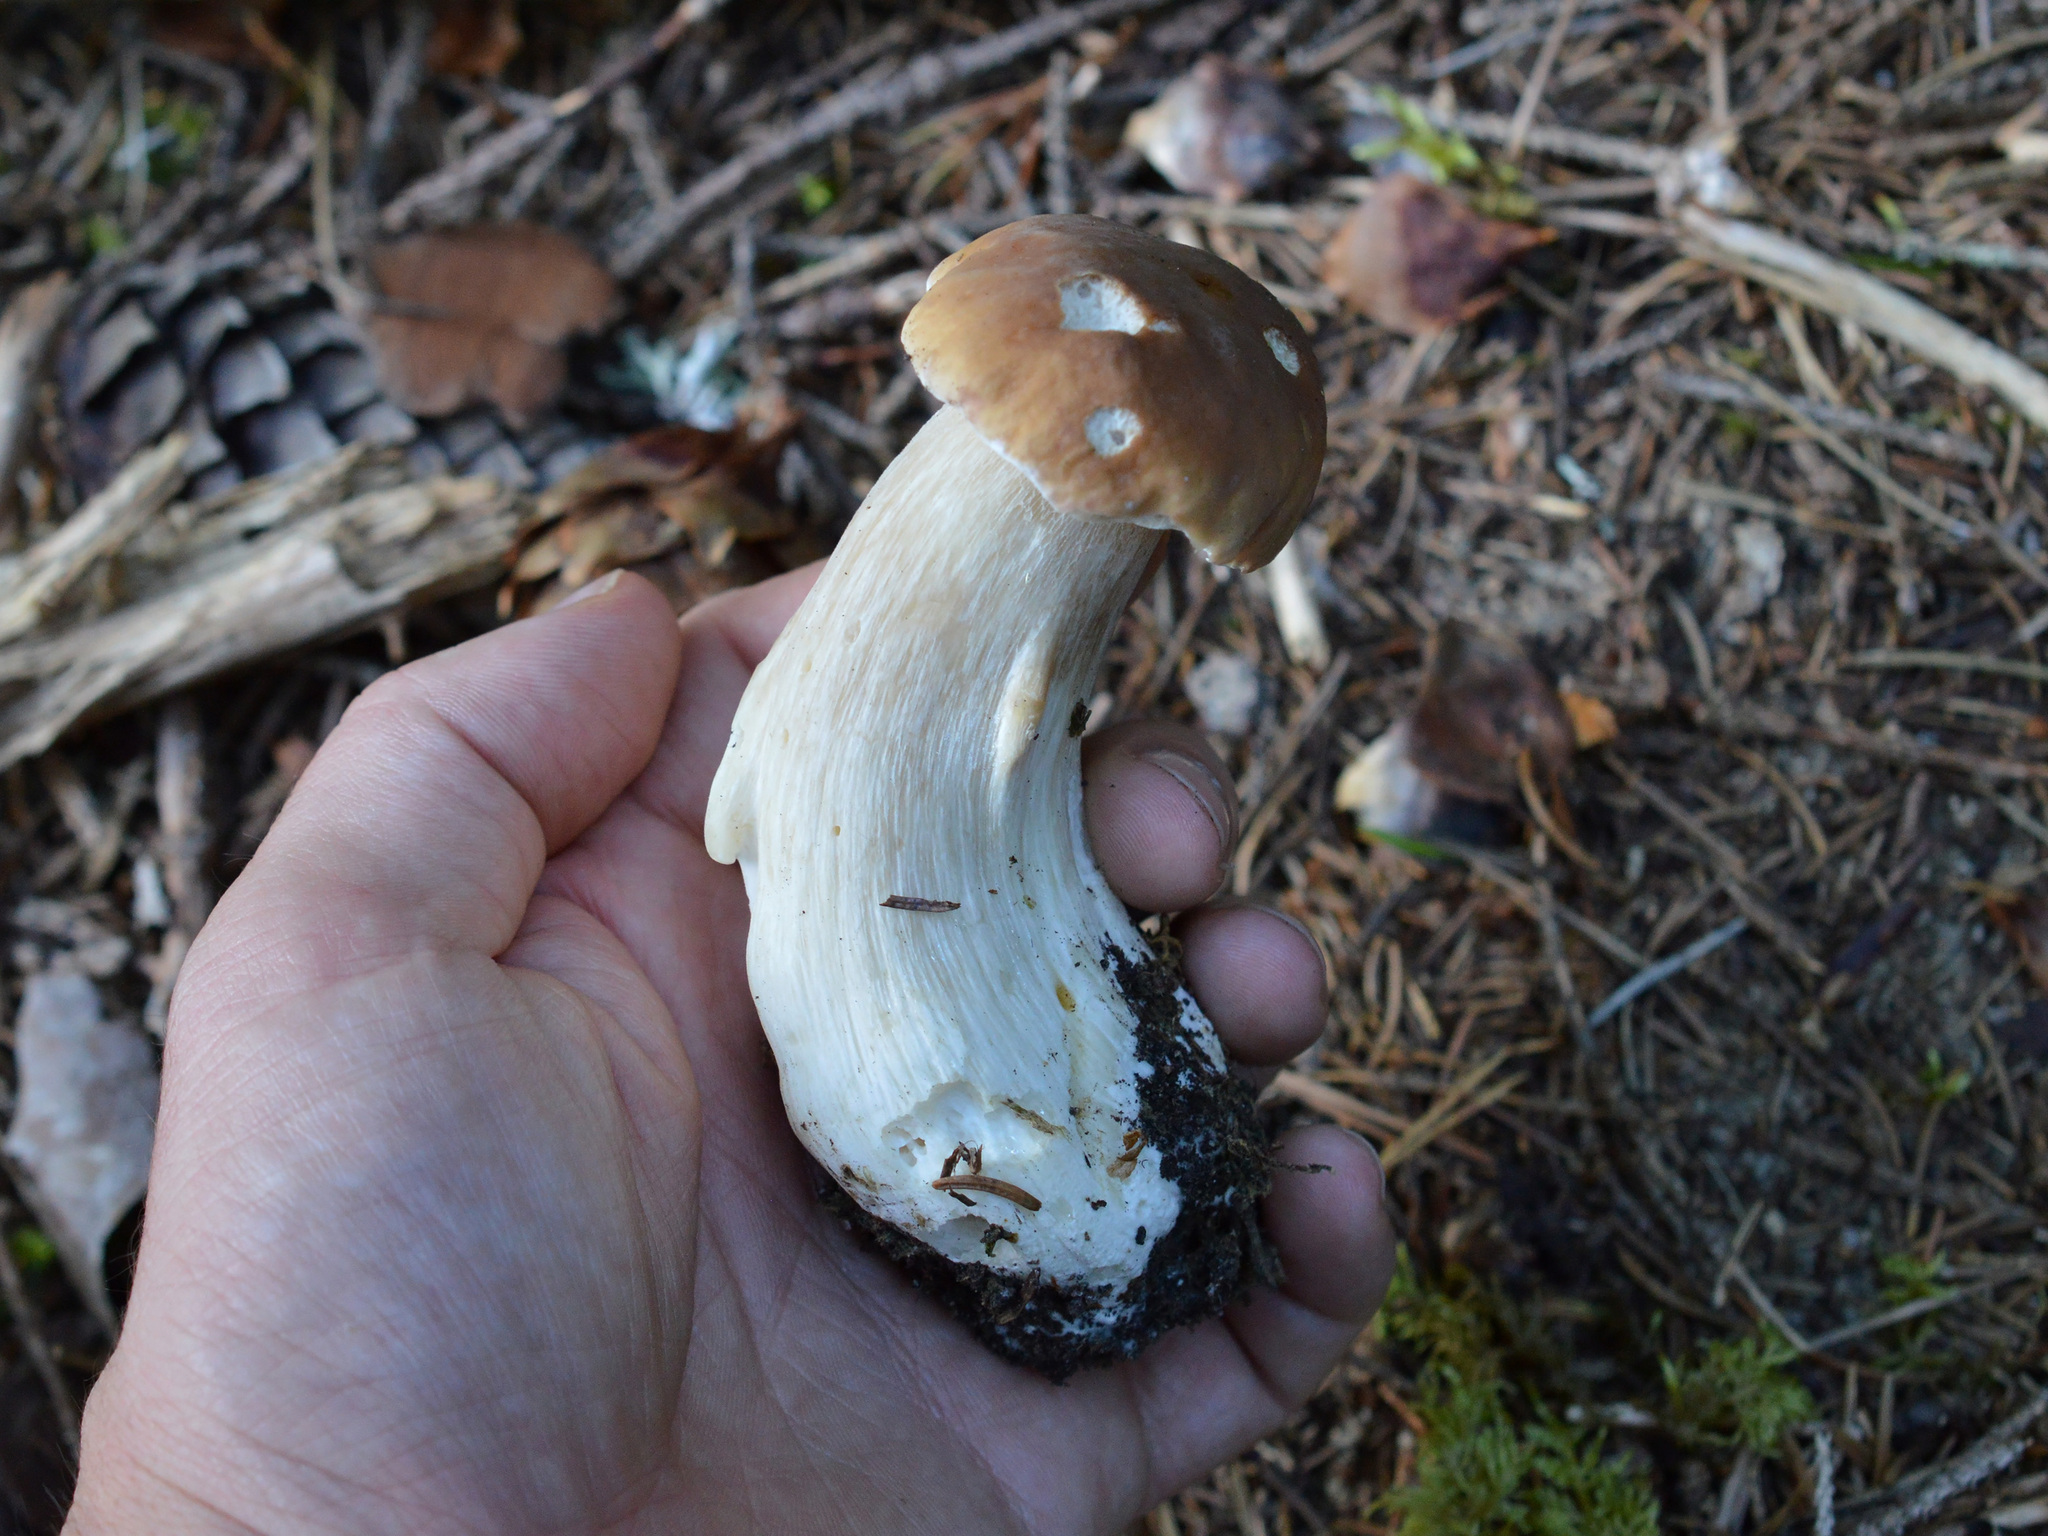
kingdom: Fungi
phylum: Basidiomycota
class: Agaricomycetes
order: Boletales
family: Boletaceae
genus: Boletus
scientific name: Boletus edulis
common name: Cep
